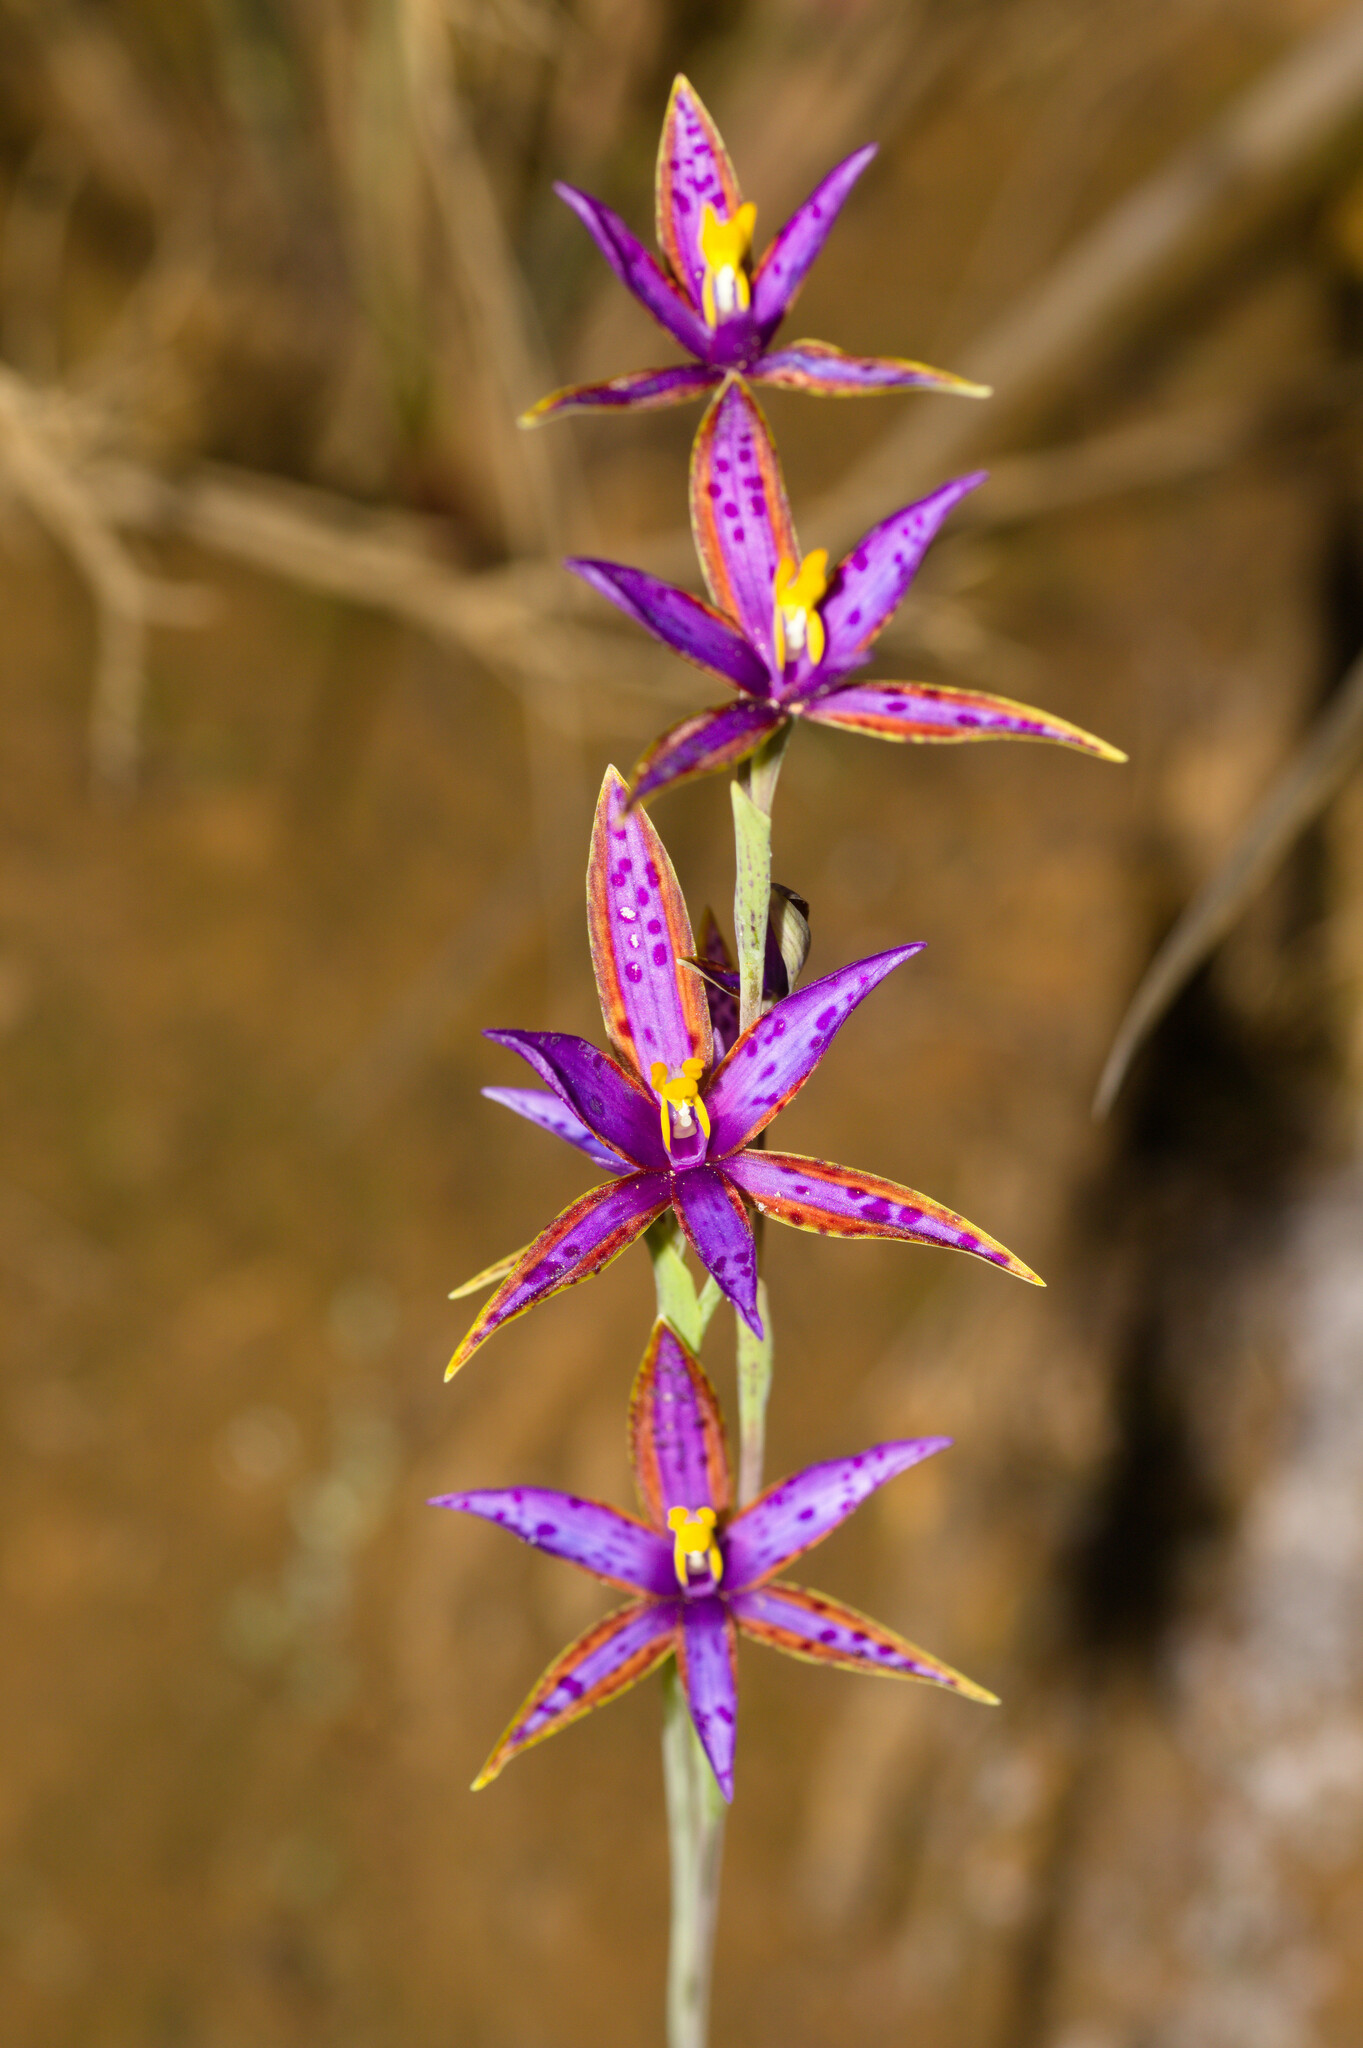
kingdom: Plantae
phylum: Tracheophyta
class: Liliopsida
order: Asparagales
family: Orchidaceae
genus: Thelymitra
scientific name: Thelymitra porphyrosticta
